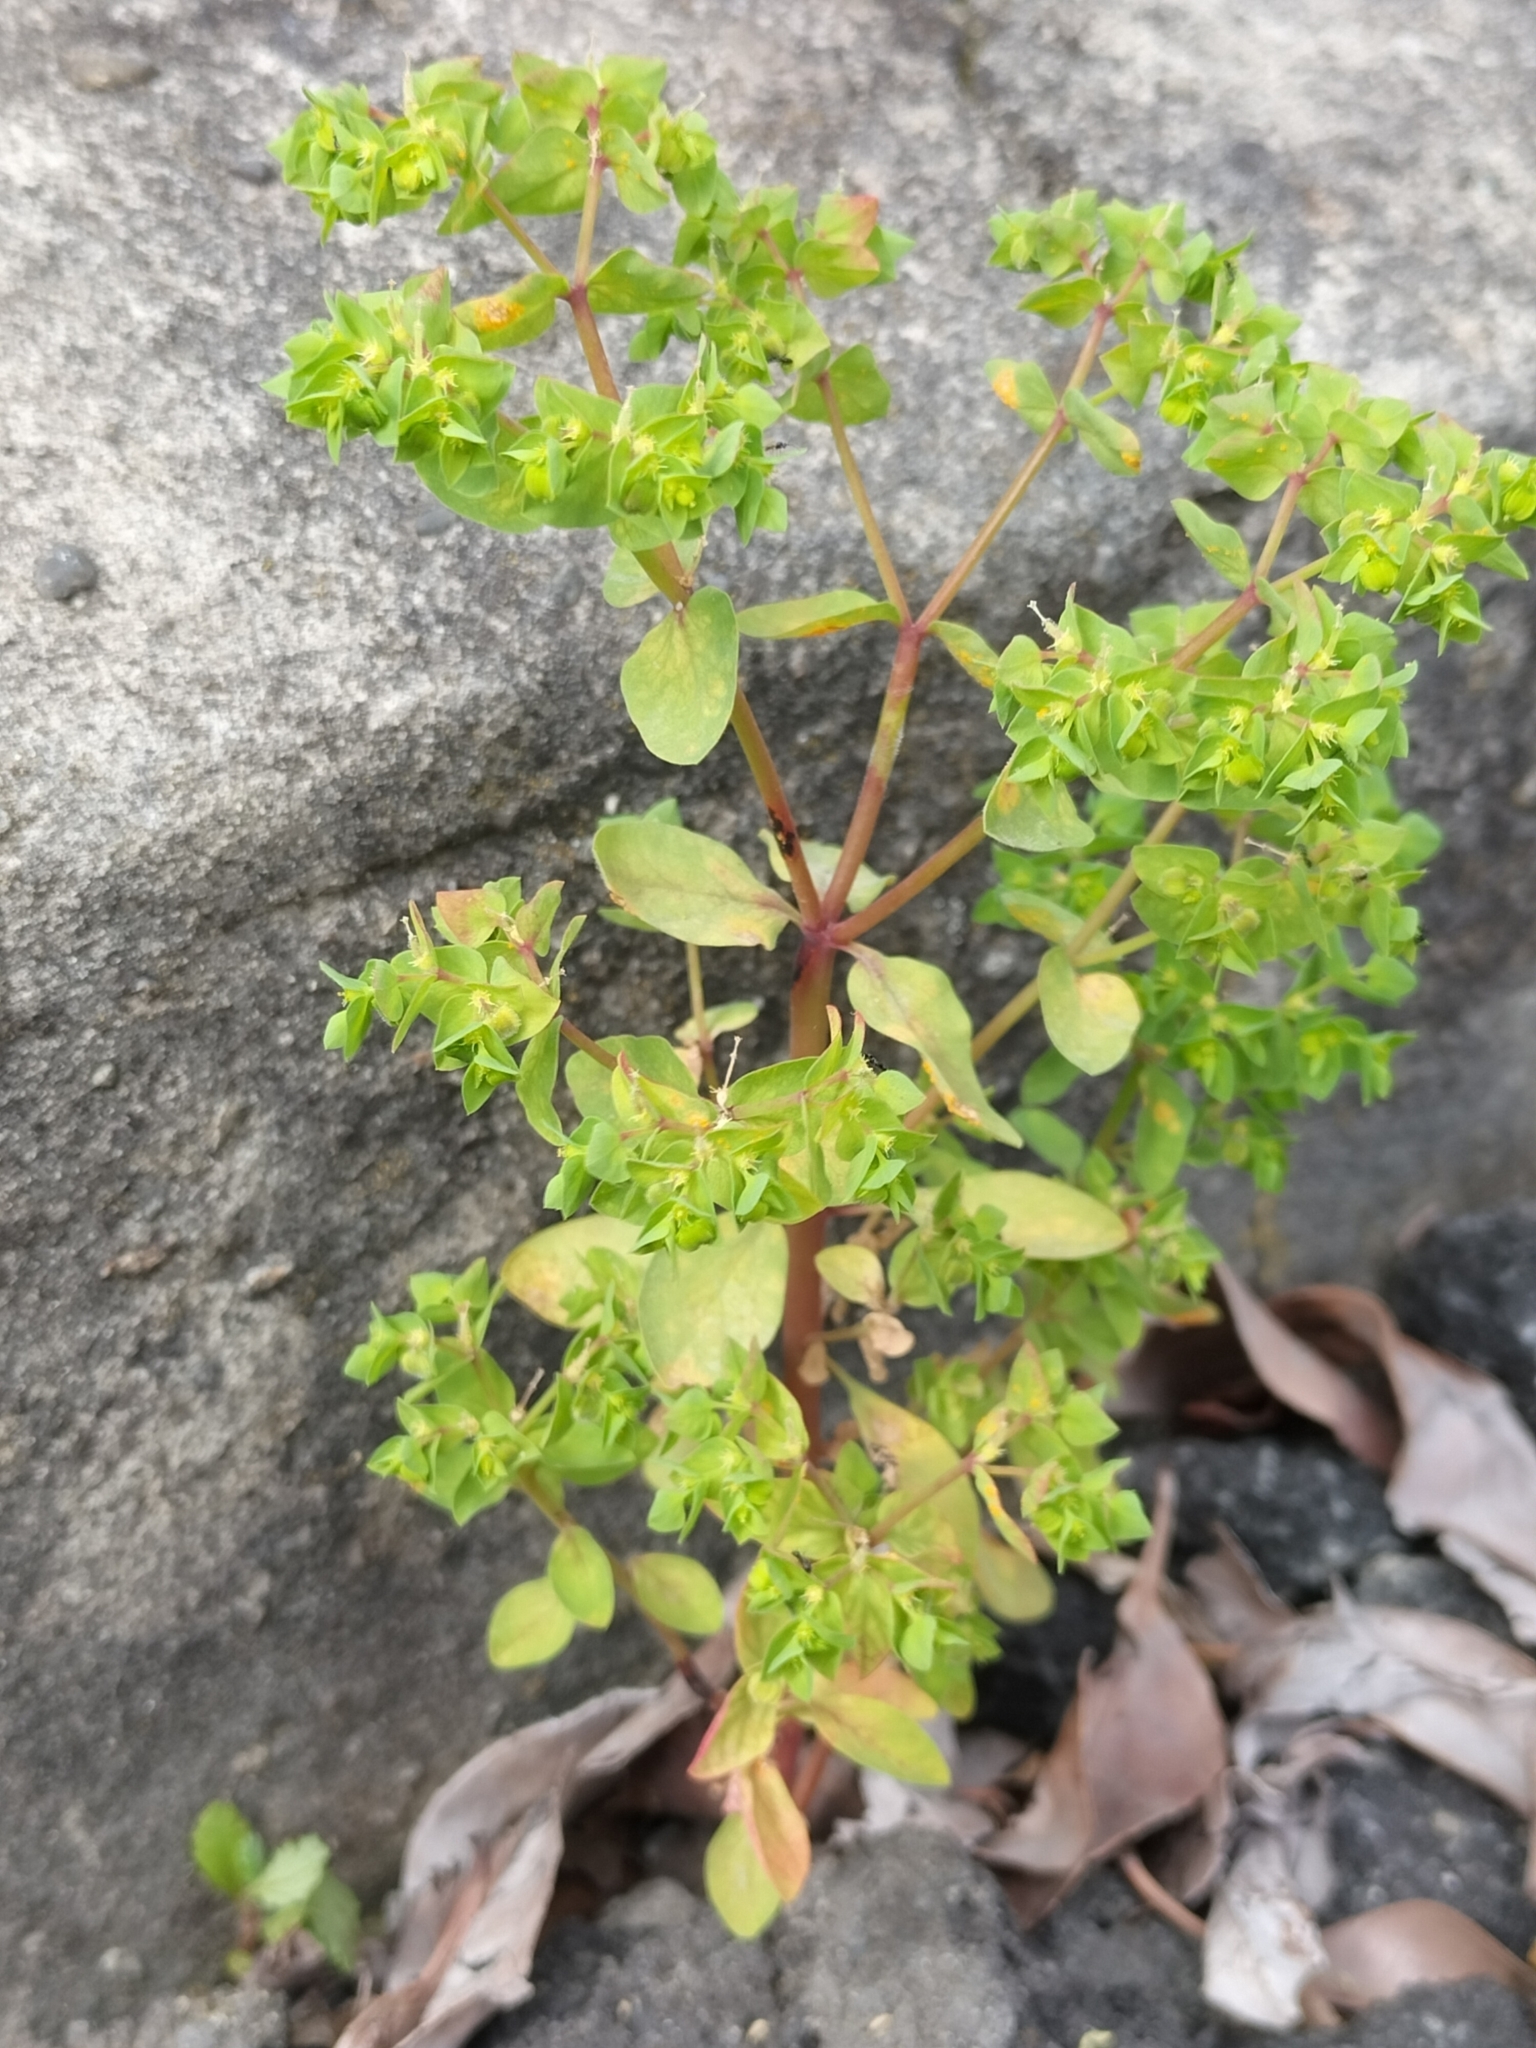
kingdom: Plantae
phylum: Tracheophyta
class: Magnoliopsida
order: Malpighiales
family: Euphorbiaceae
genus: Euphorbia
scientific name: Euphorbia peplus
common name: Petty spurge
